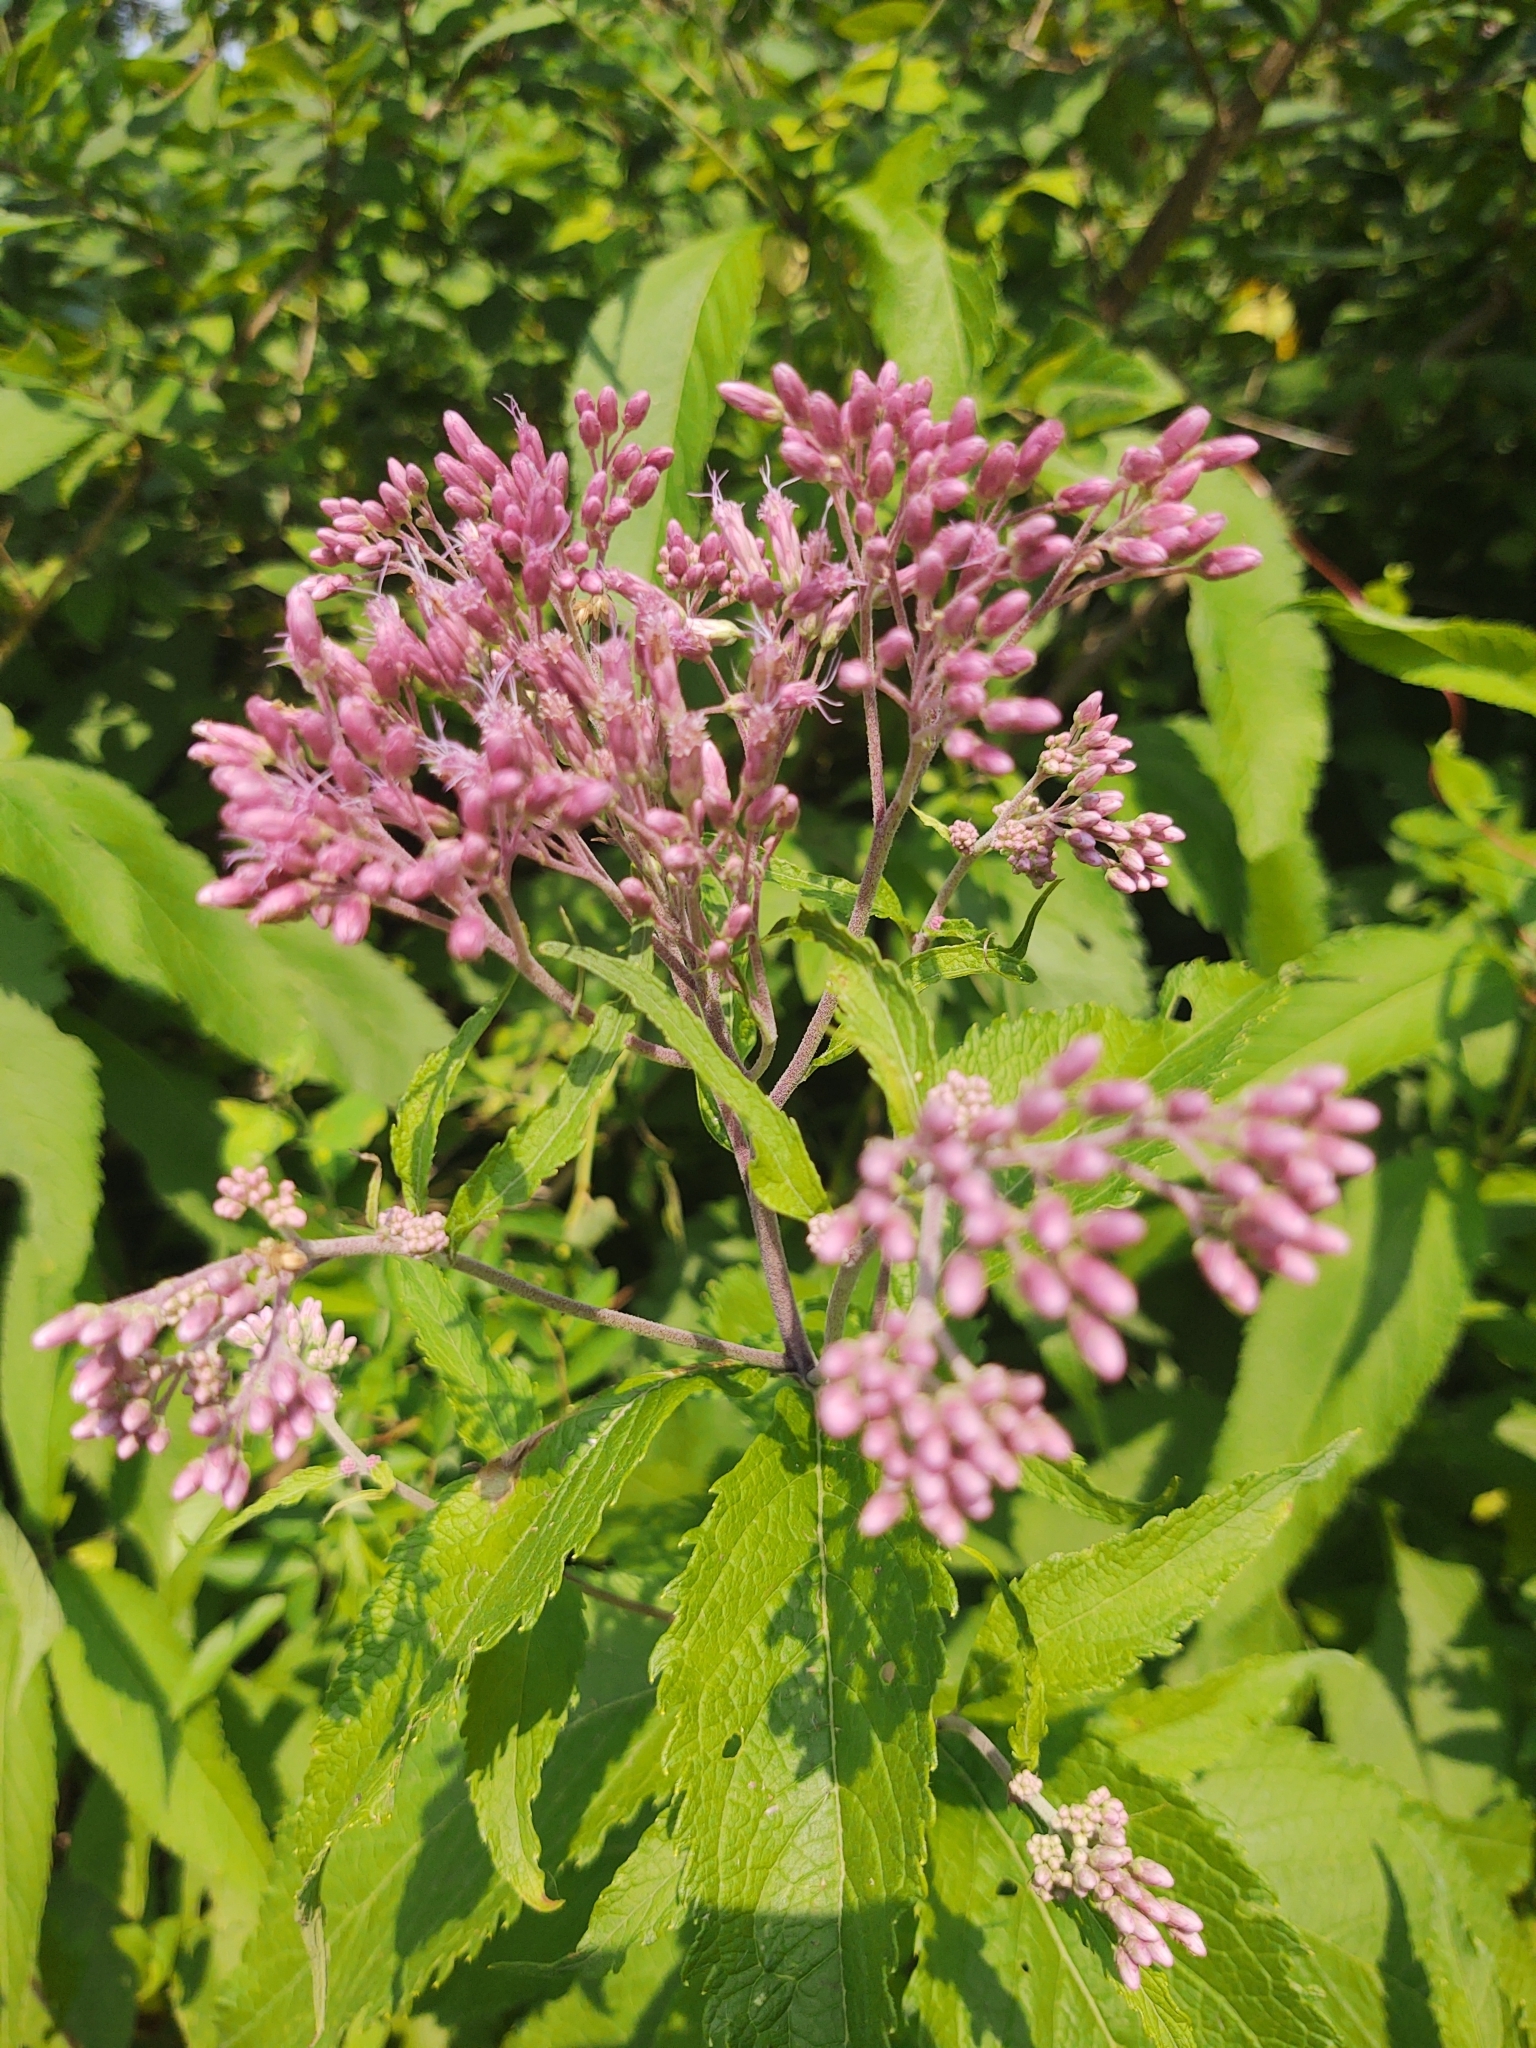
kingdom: Plantae
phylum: Tracheophyta
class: Magnoliopsida
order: Asterales
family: Asteraceae
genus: Eutrochium
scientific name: Eutrochium maculatum
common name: Spotted joe pye weed
